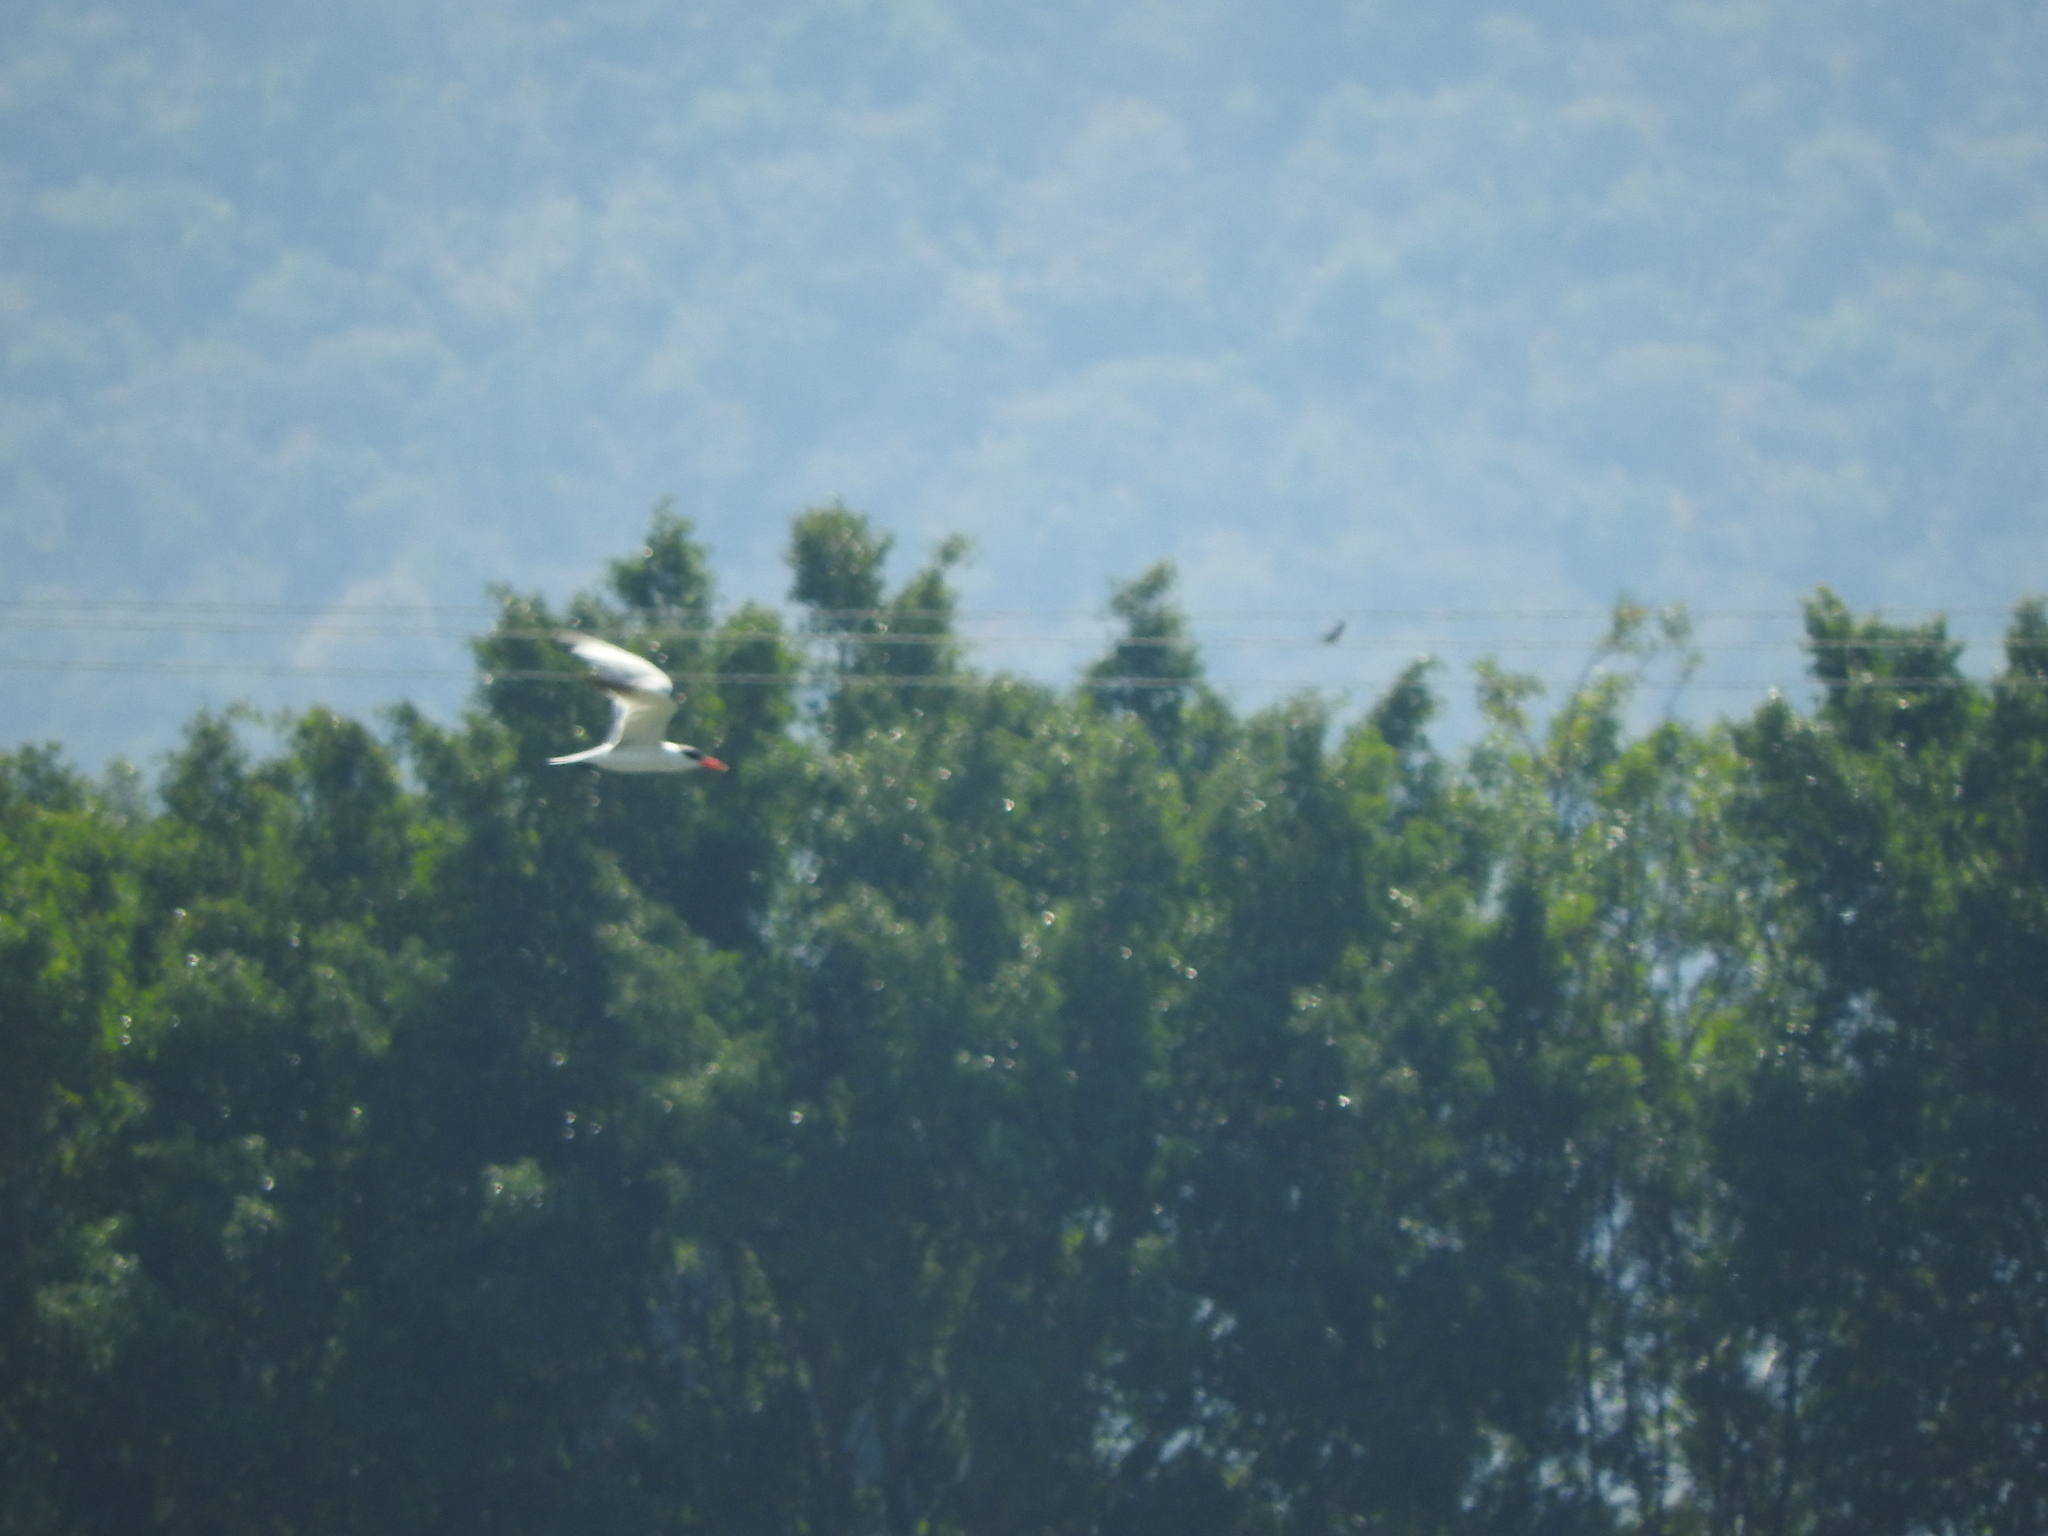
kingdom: Animalia
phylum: Chordata
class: Aves
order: Charadriiformes
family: Laridae
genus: Hydroprogne
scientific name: Hydroprogne caspia
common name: Caspian tern
